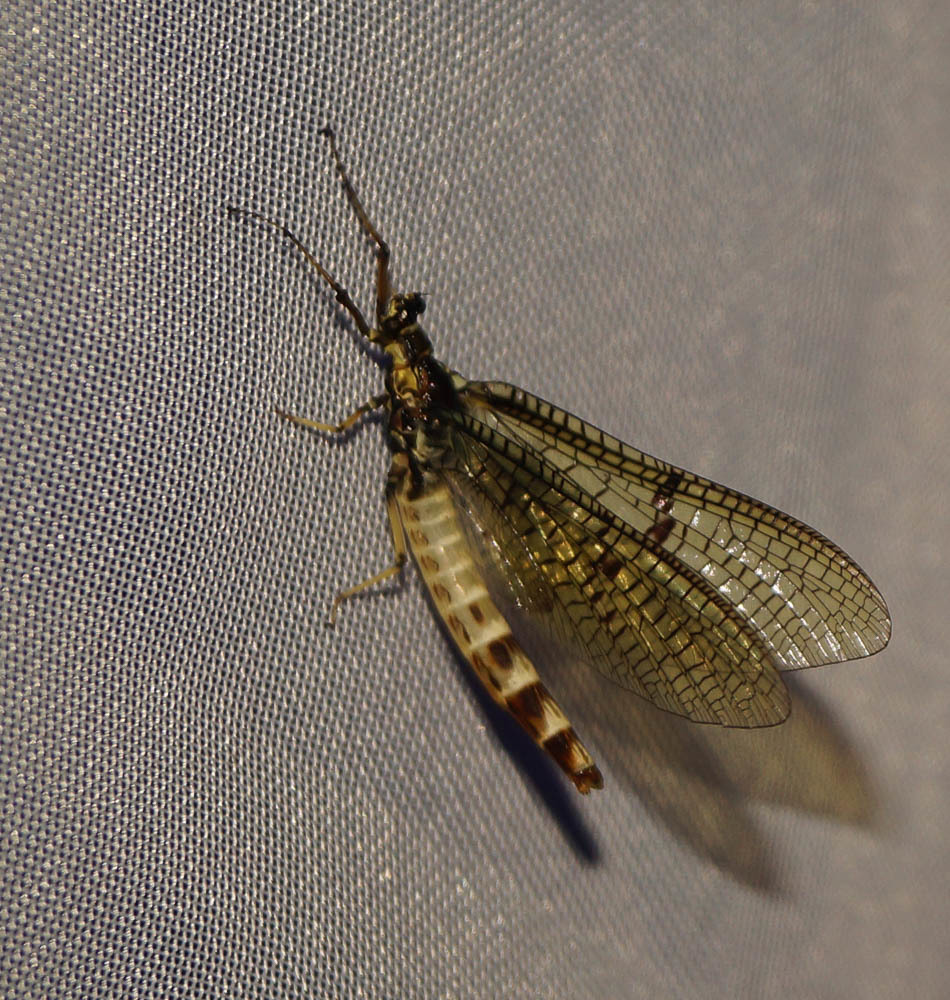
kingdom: Animalia
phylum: Arthropoda
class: Insecta
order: Ephemeroptera
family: Ephemeridae
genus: Ephemera
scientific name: Ephemera danica
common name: Green dun
